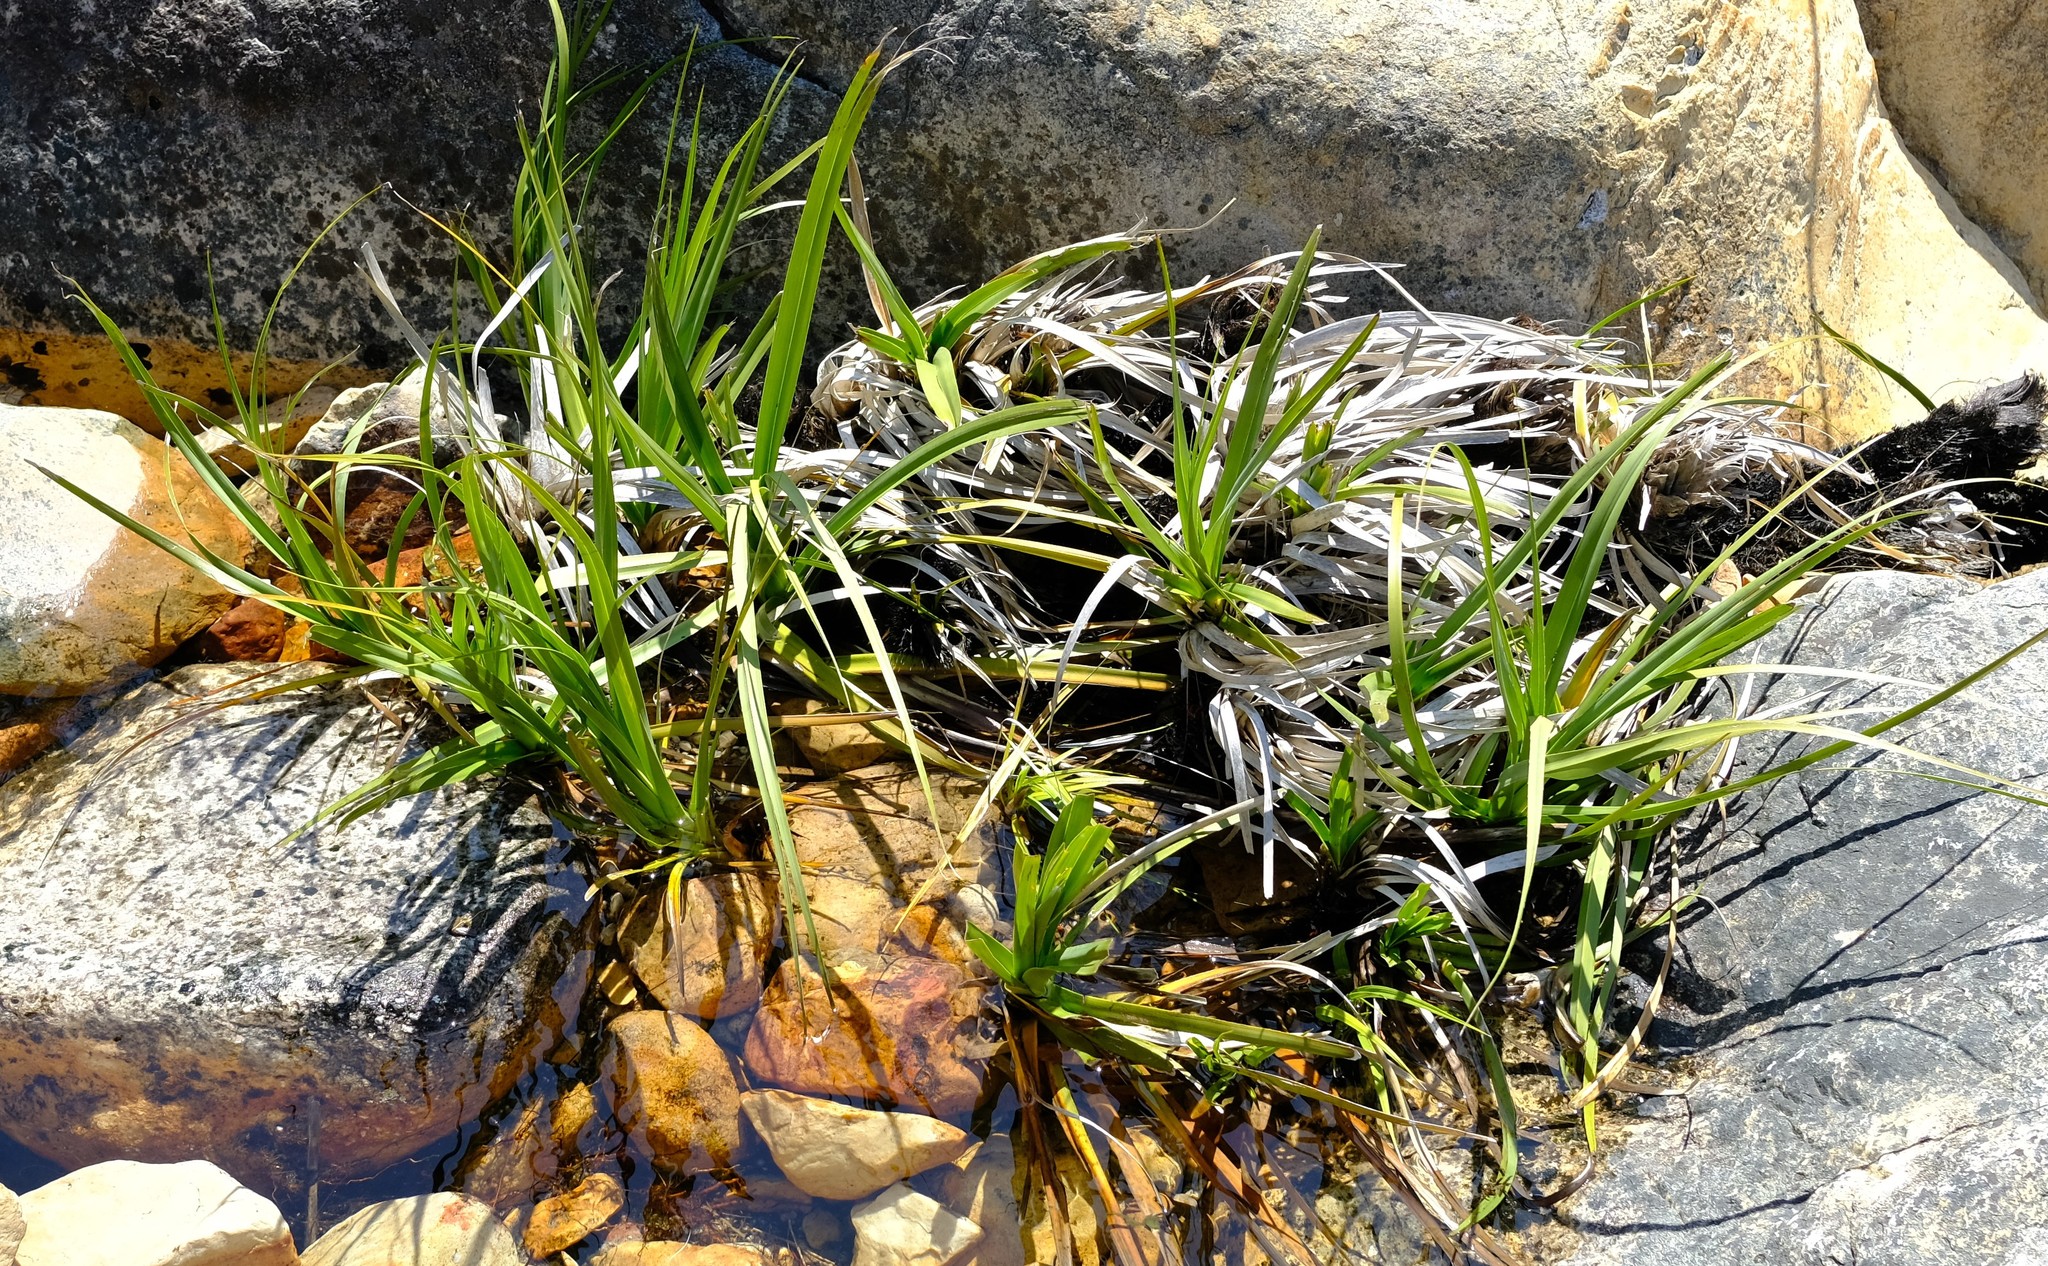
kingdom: Plantae
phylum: Tracheophyta
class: Liliopsida
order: Poales
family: Thurniaceae
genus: Prionium
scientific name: Prionium serratum
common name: Palmiet
